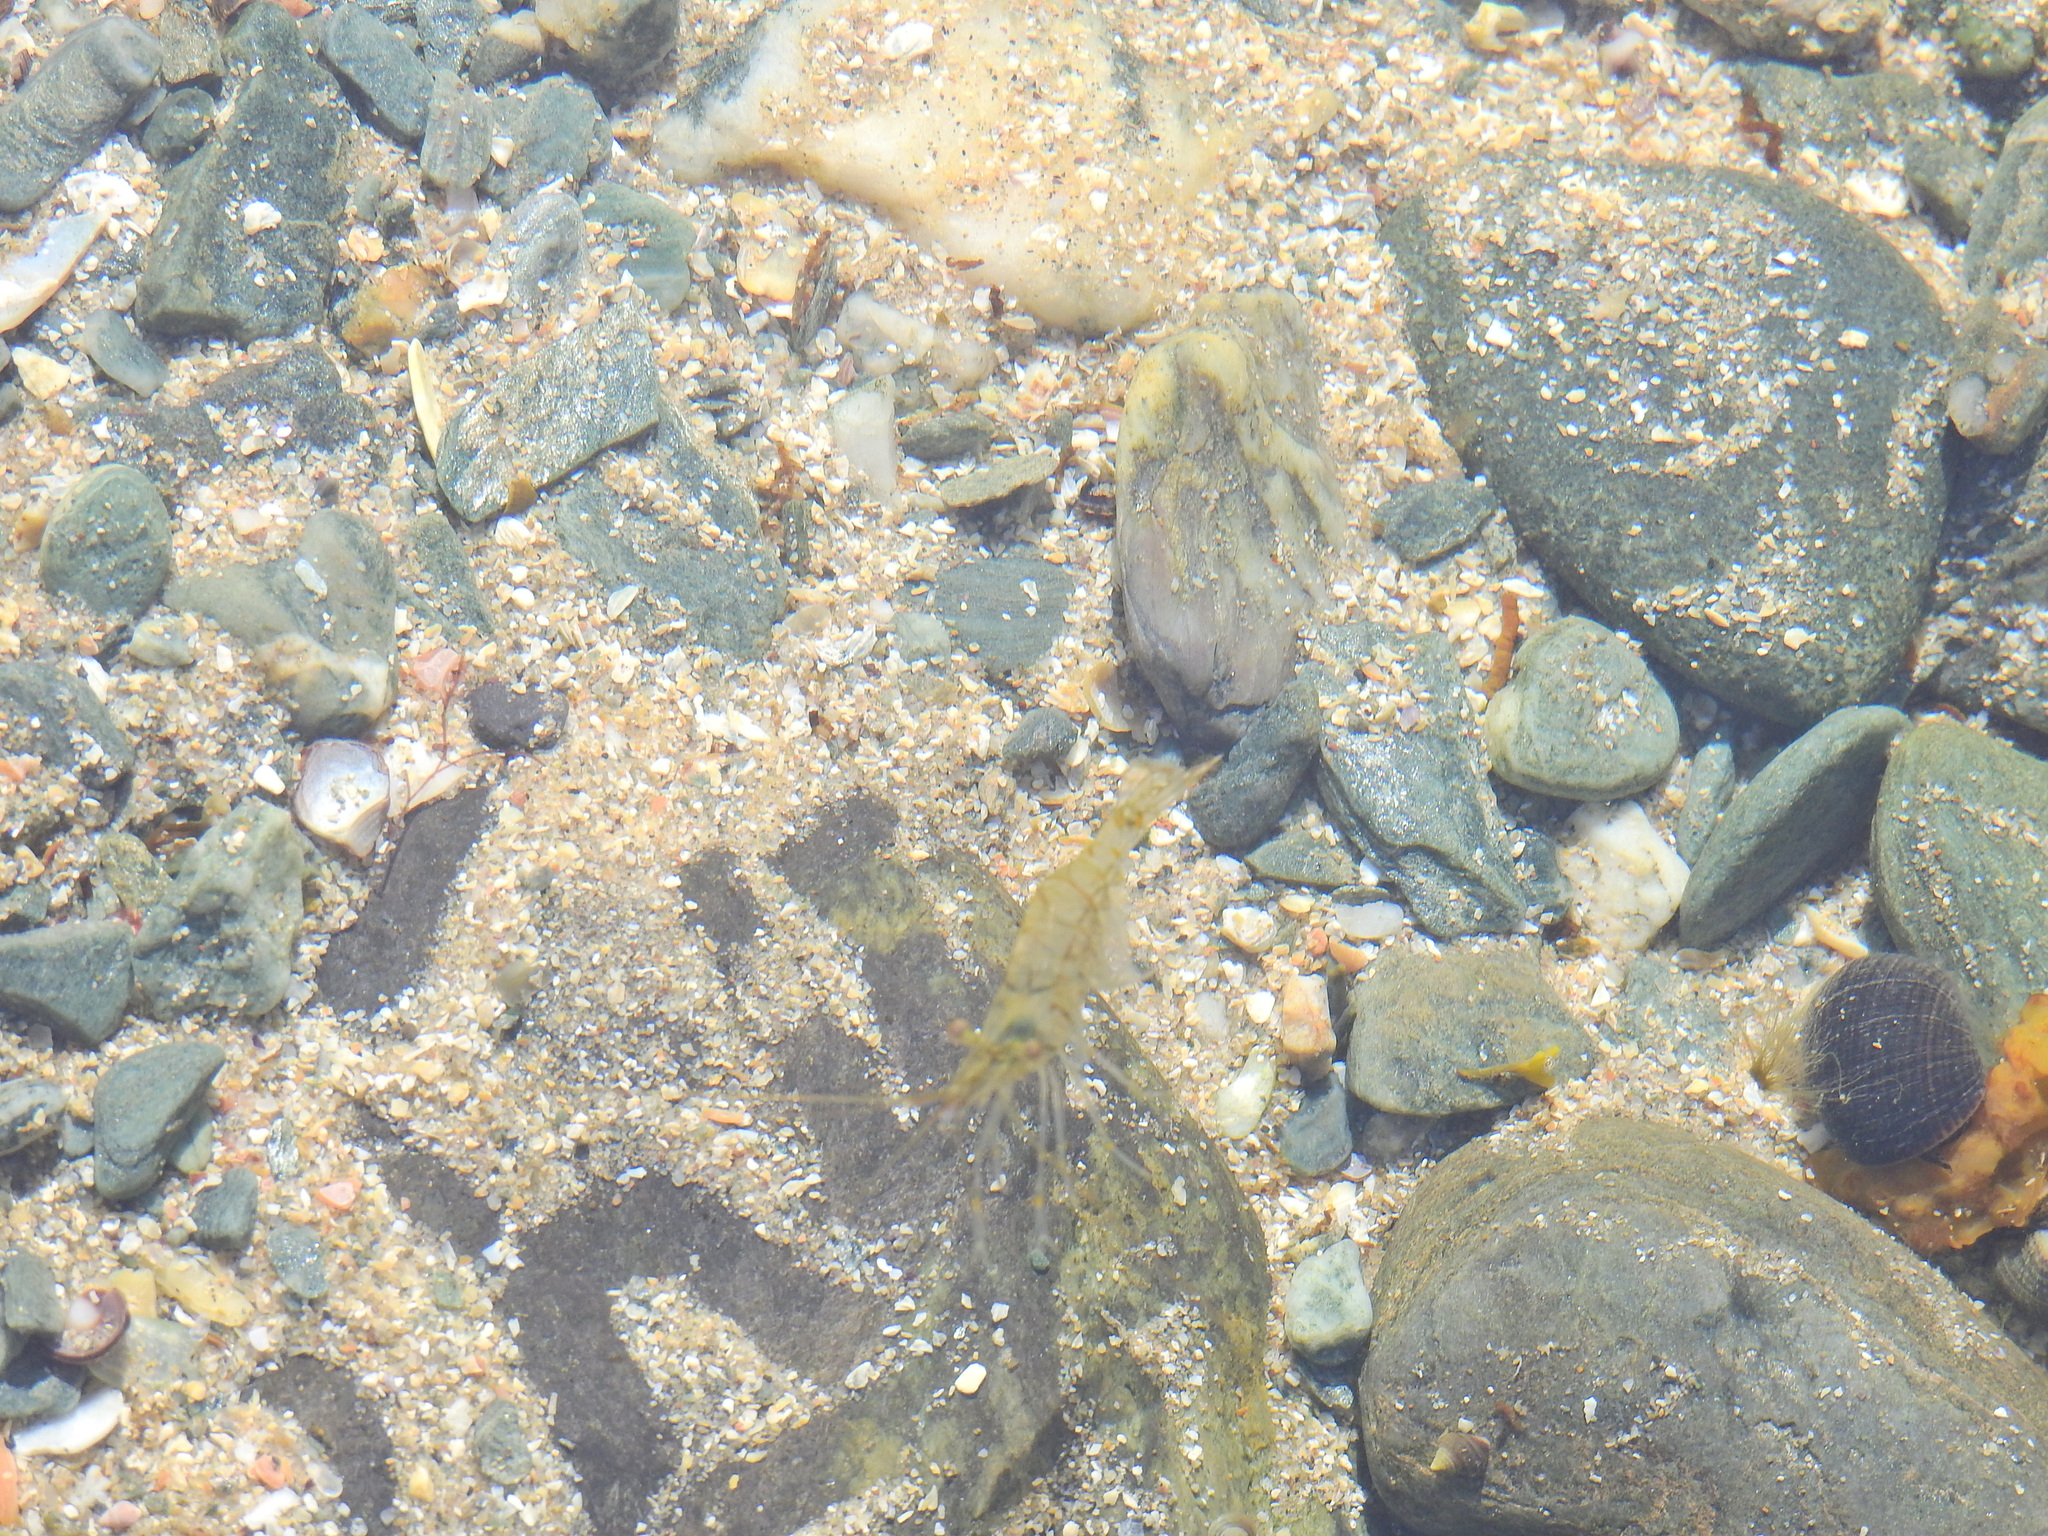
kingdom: Animalia
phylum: Arthropoda
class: Malacostraca
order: Decapoda
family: Palaemonidae
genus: Palaemon
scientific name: Palaemon elegans
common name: Grass prawm
